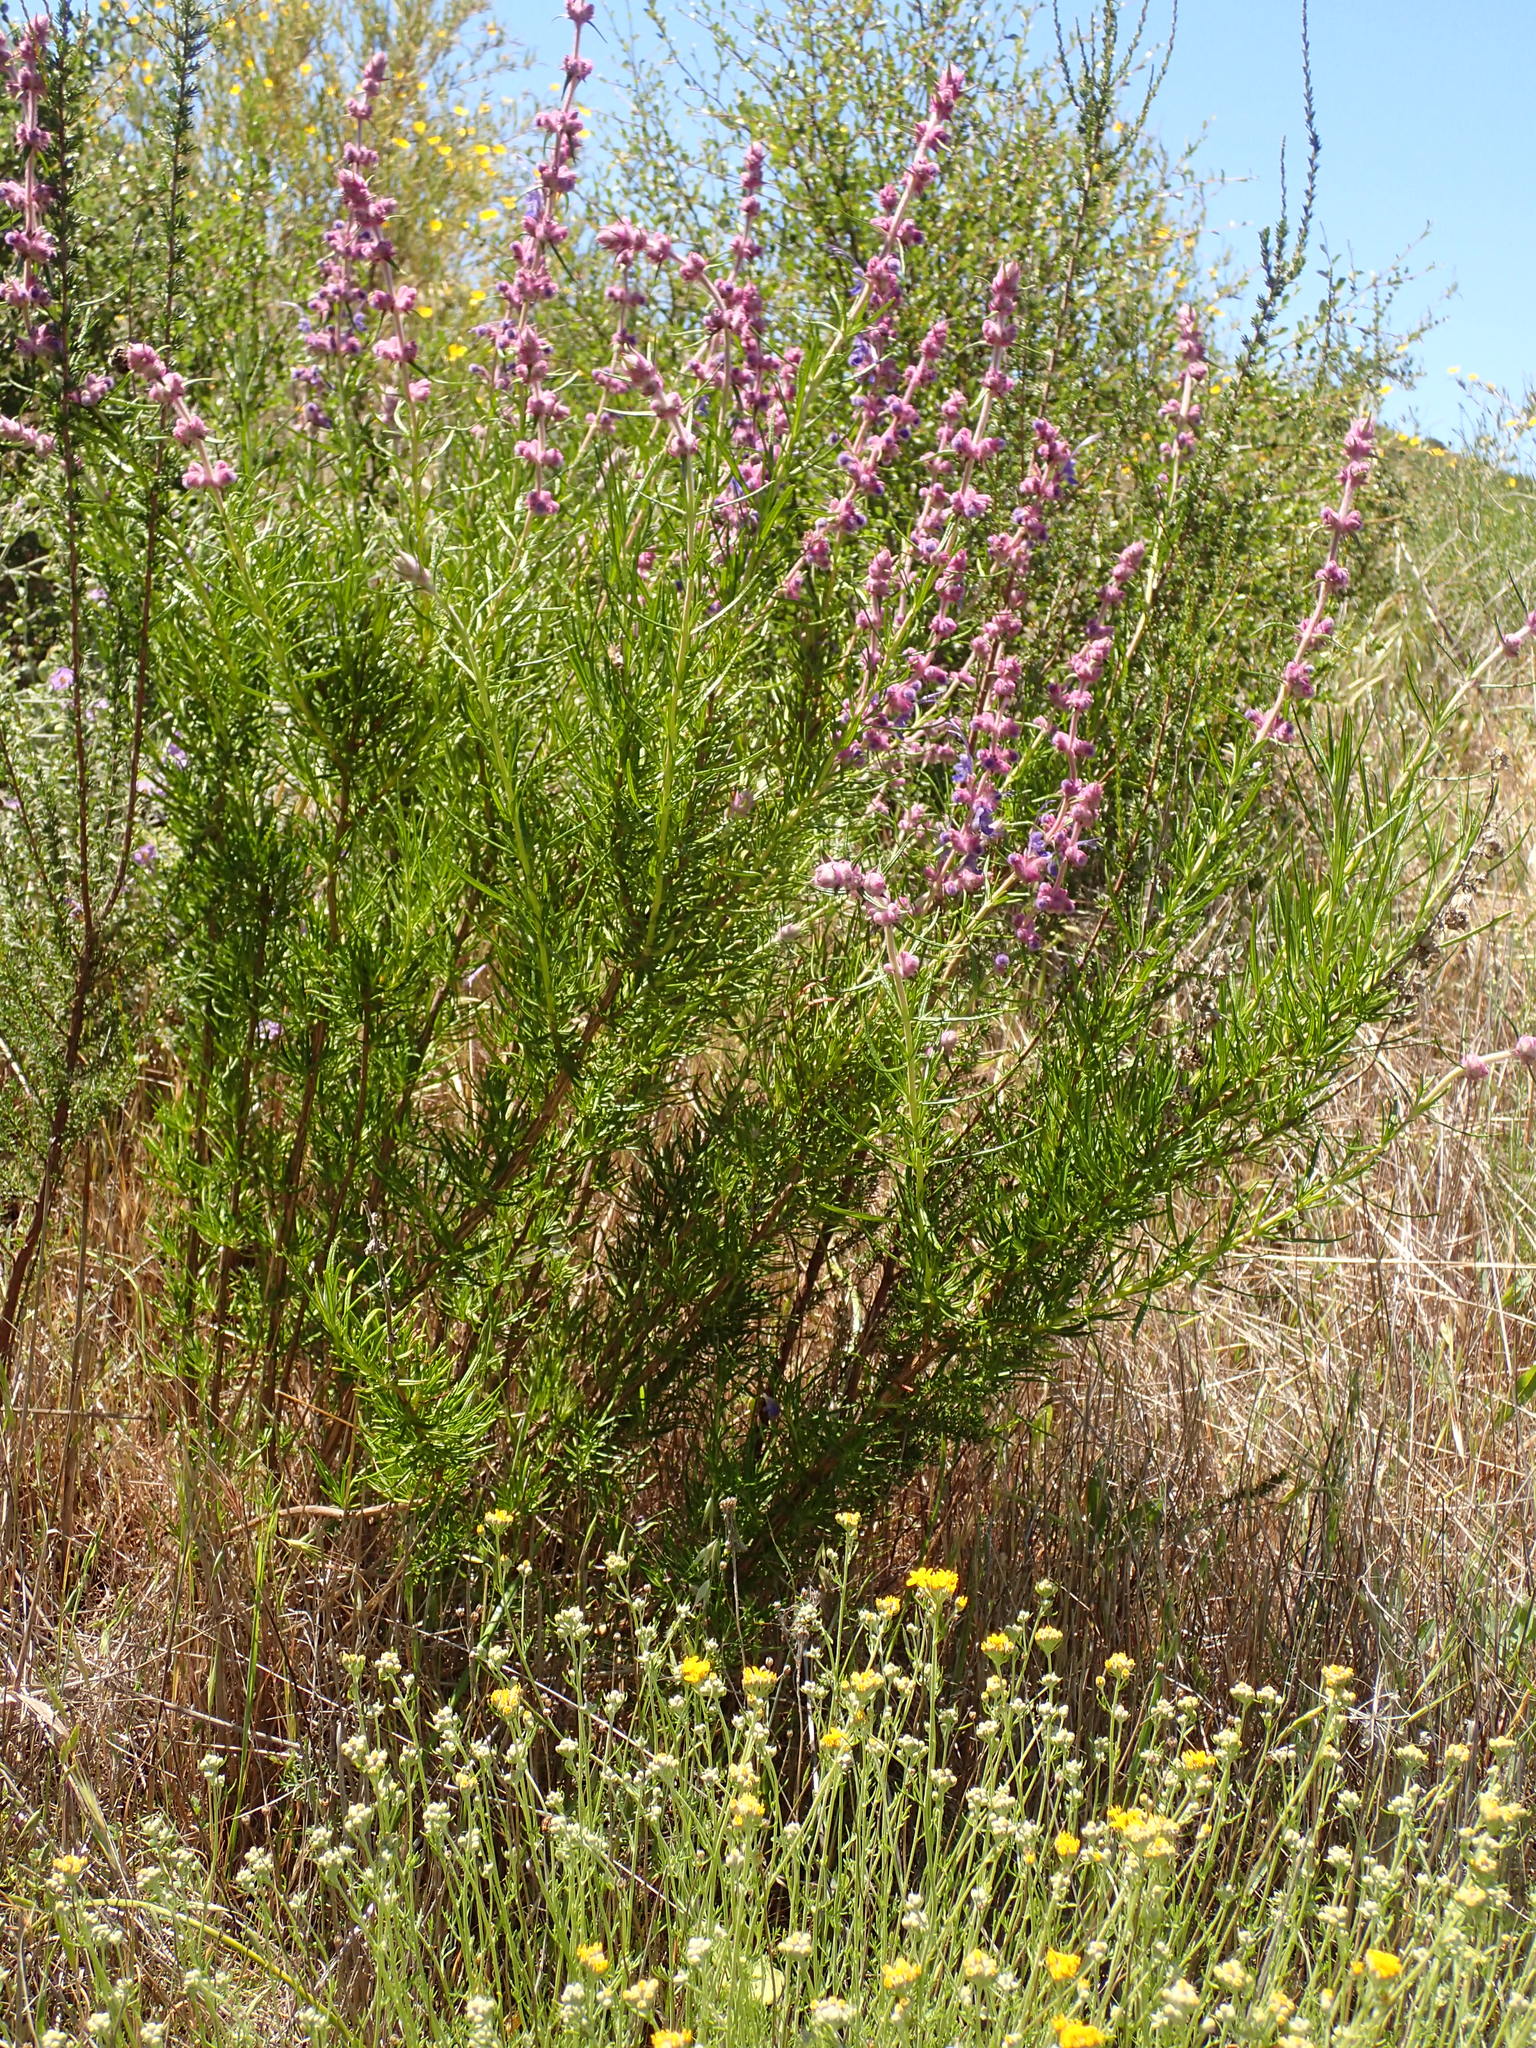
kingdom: Plantae
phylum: Tracheophyta
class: Magnoliopsida
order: Lamiales
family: Lamiaceae
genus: Trichostema
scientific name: Trichostema lanatum
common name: Woolly bluecurls
